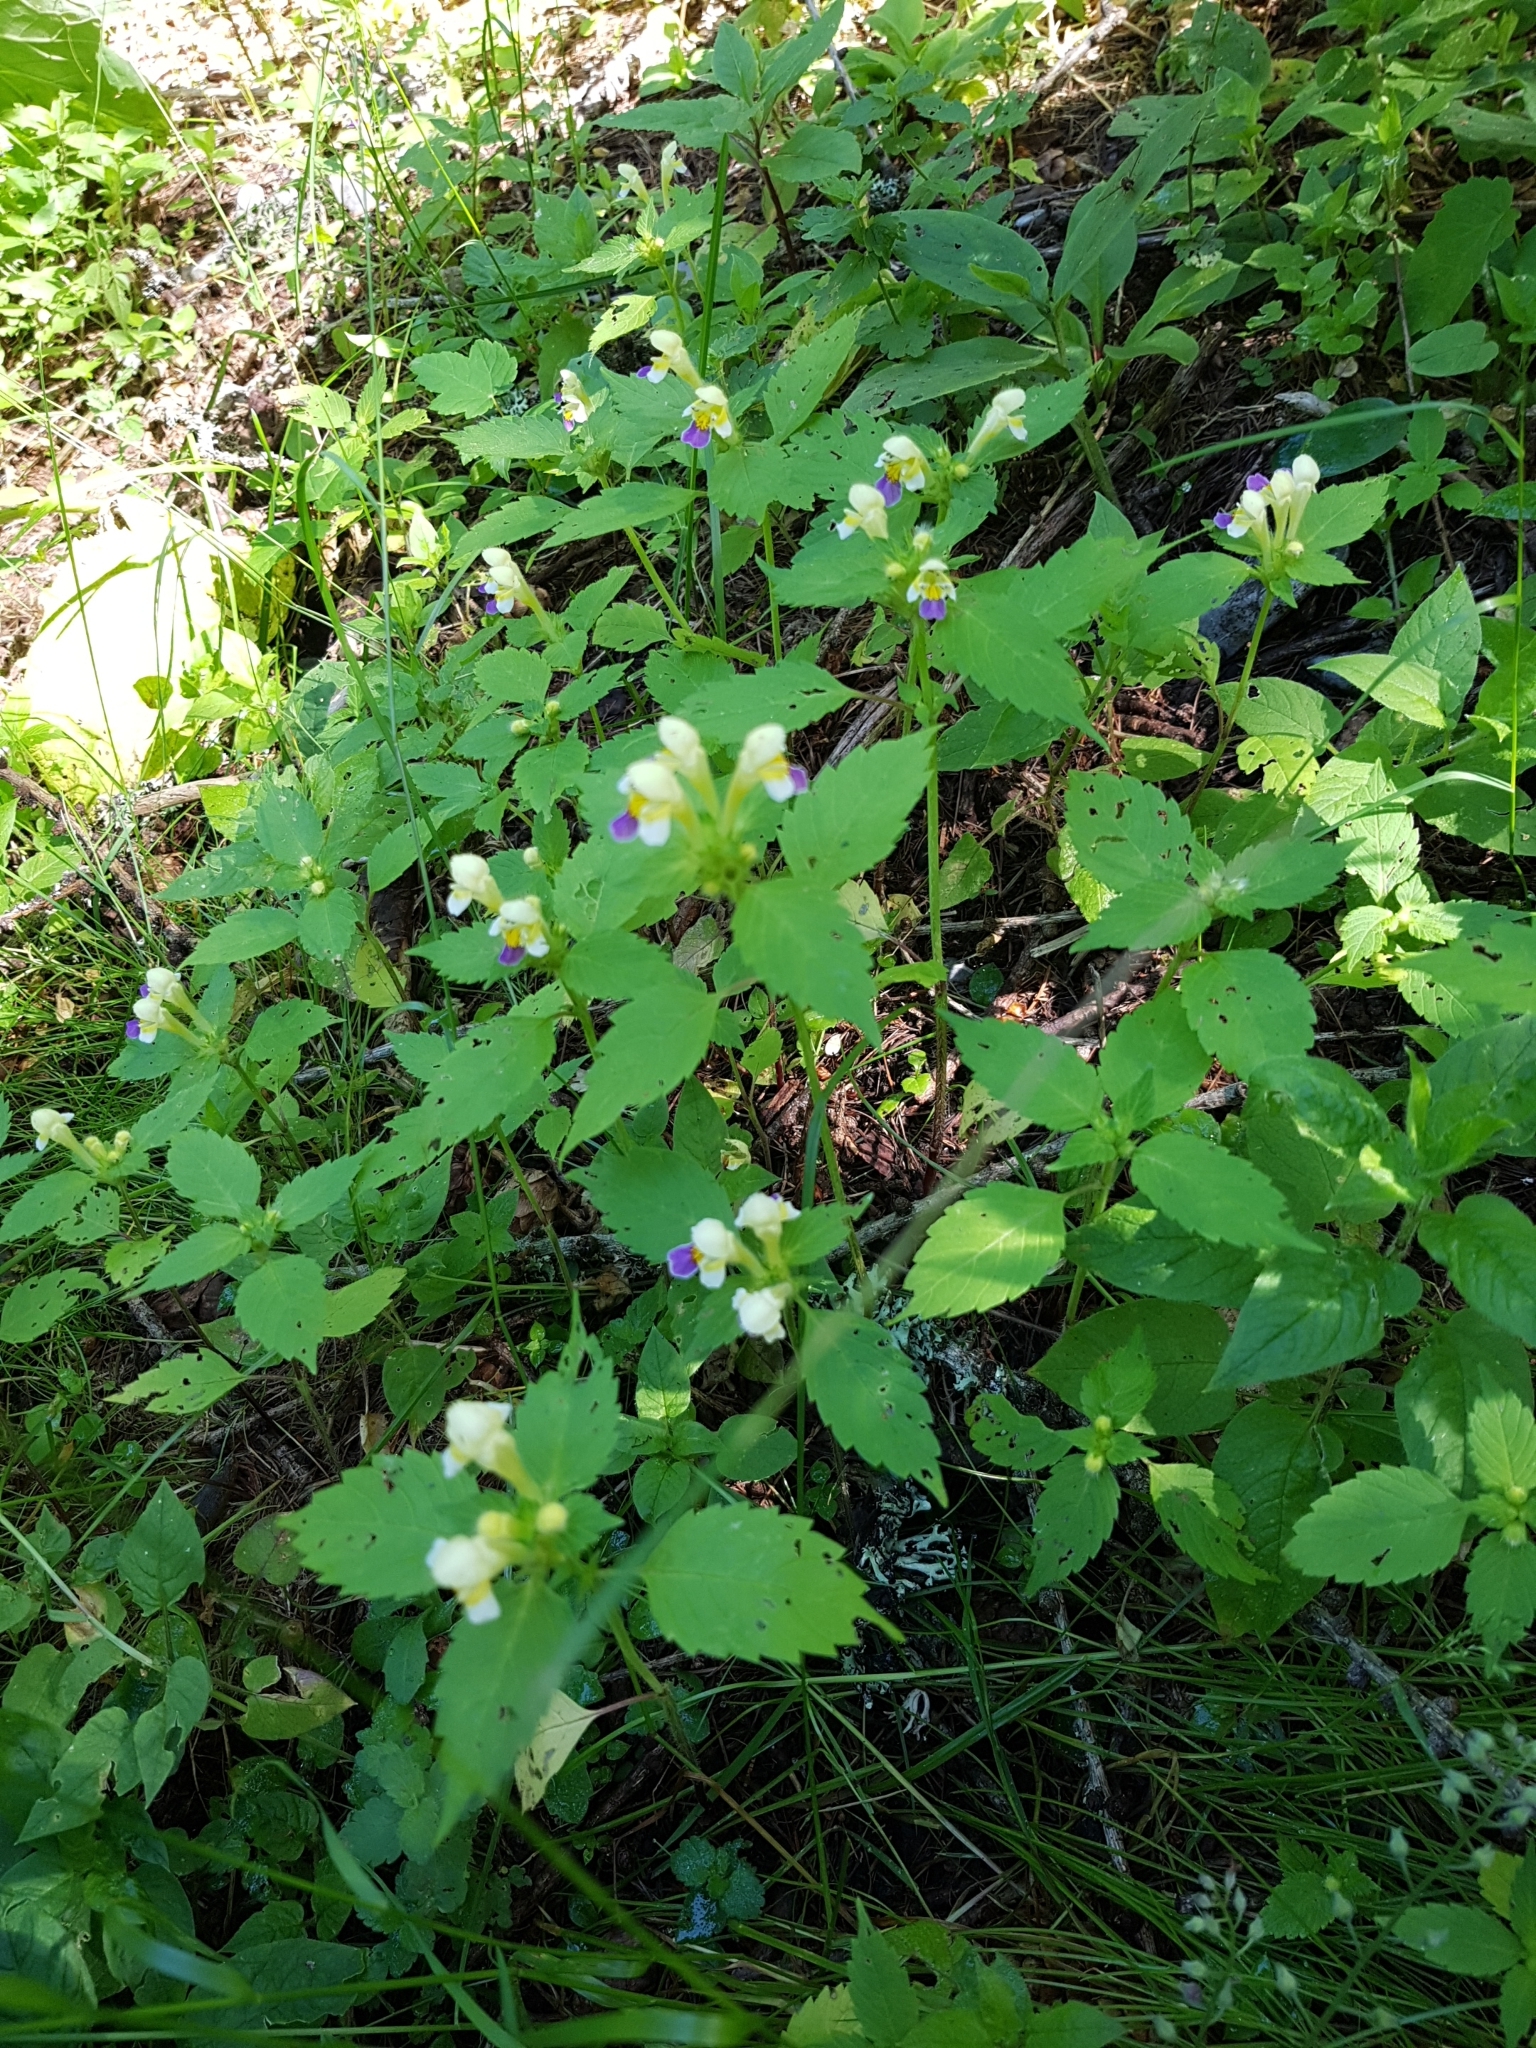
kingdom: Plantae
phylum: Tracheophyta
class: Magnoliopsida
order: Lamiales
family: Lamiaceae
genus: Galeopsis
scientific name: Galeopsis speciosa
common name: Large-flowered hemp-nettle
